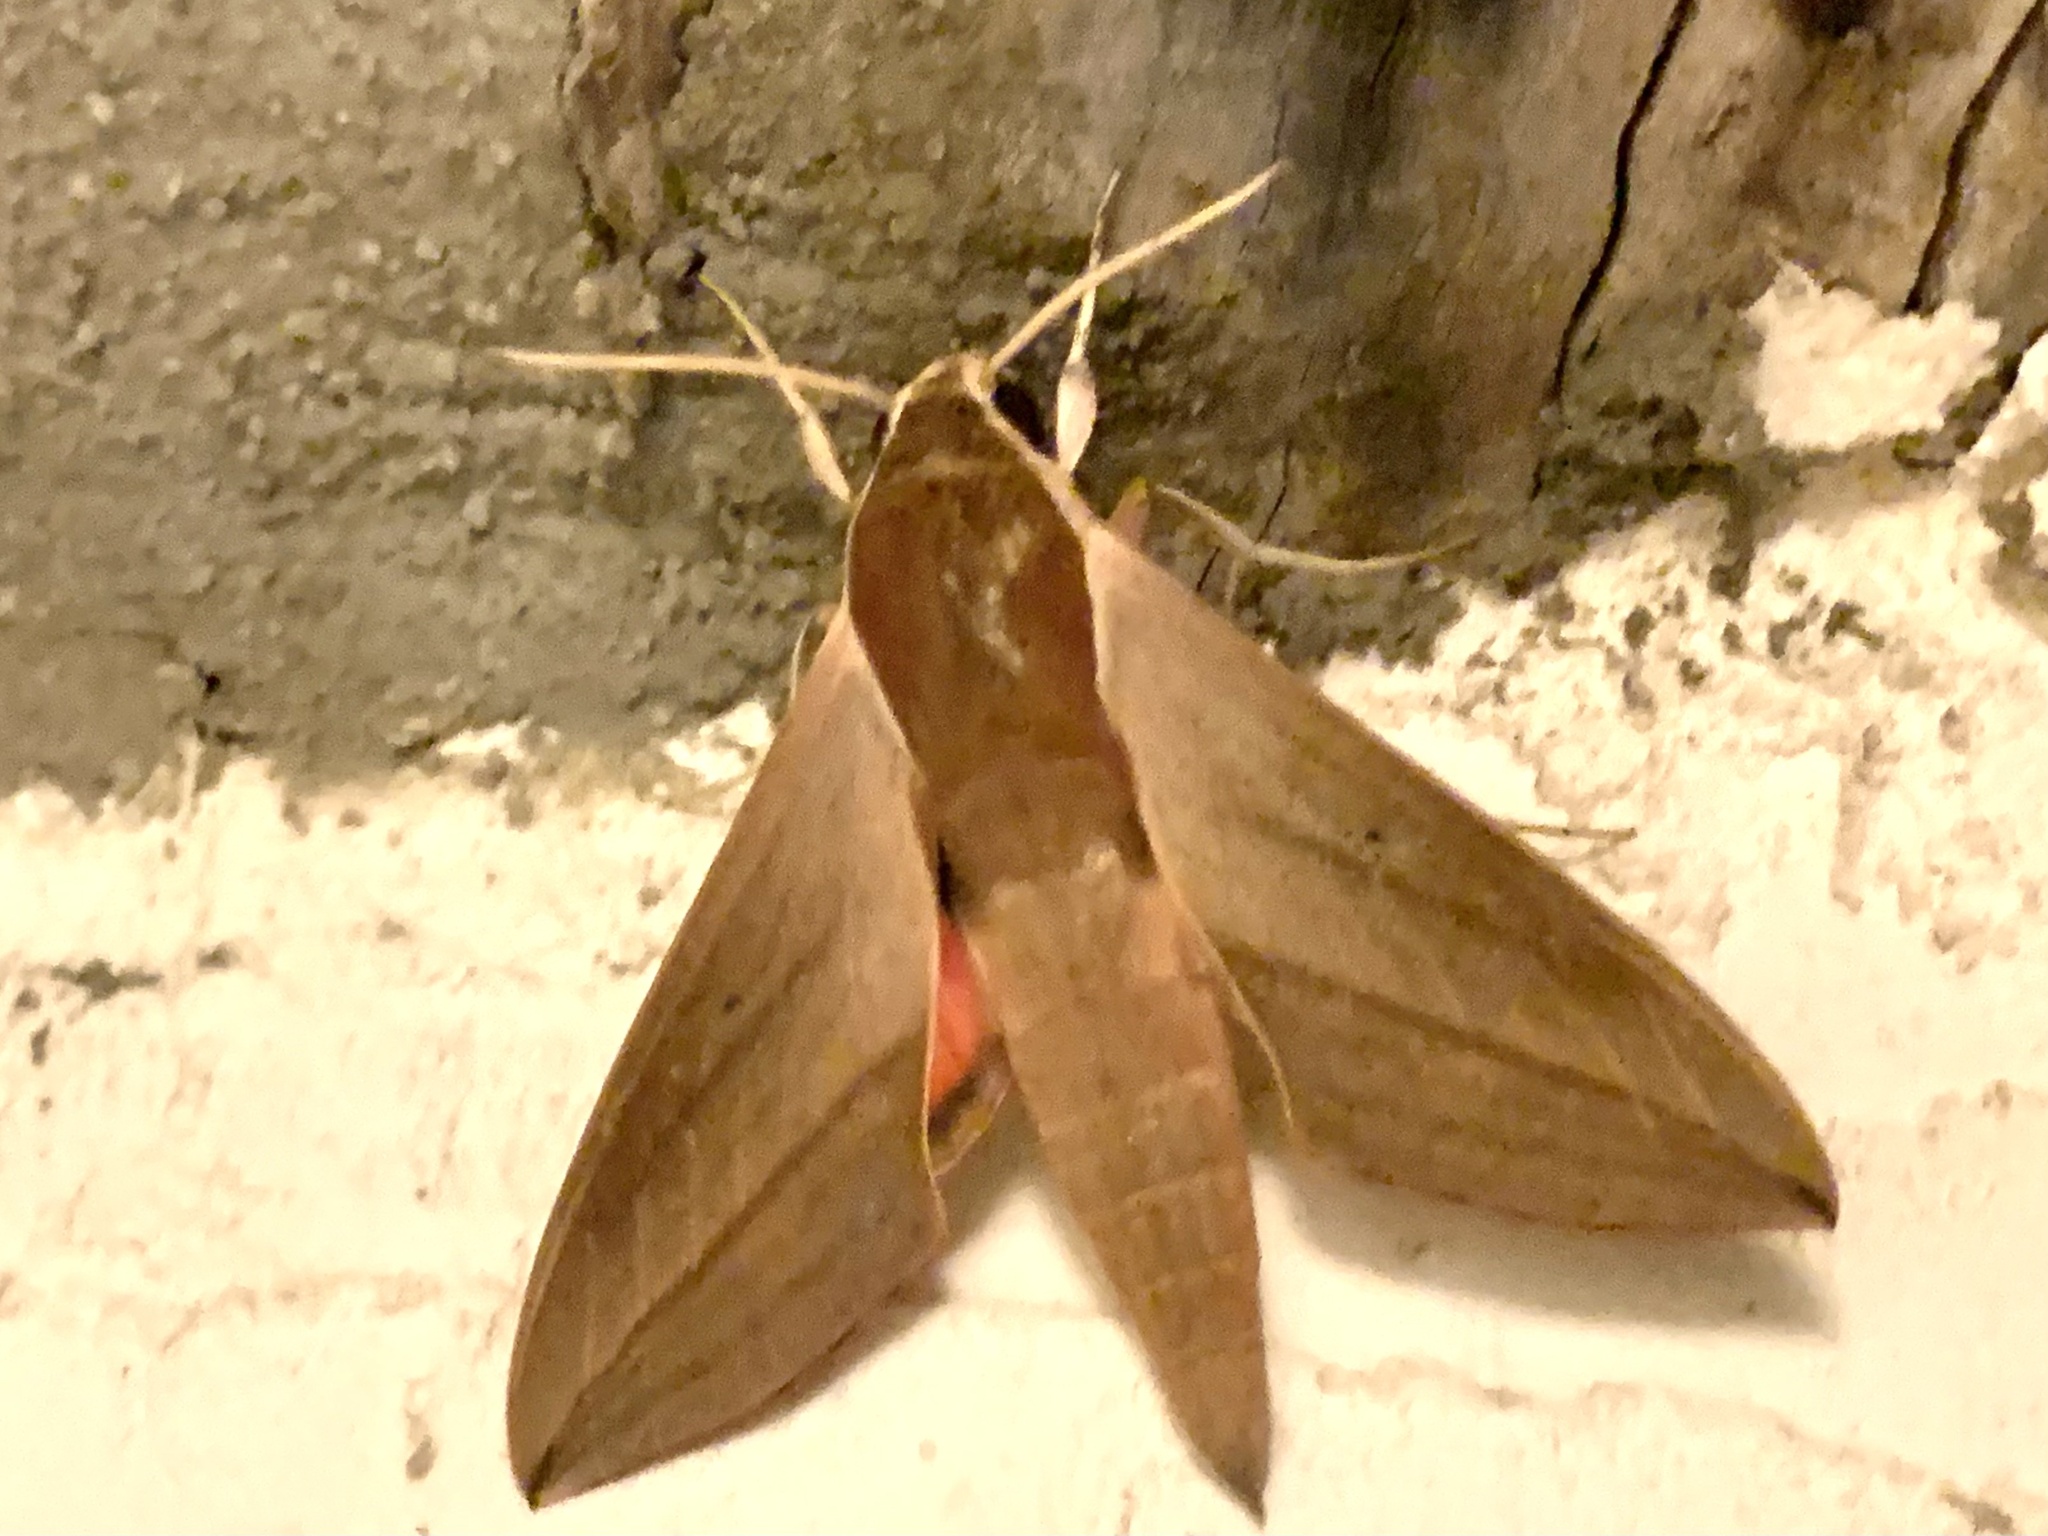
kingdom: Animalia
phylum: Arthropoda
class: Insecta
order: Lepidoptera
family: Sphingidae
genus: Theretra
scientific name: Theretra alecto
